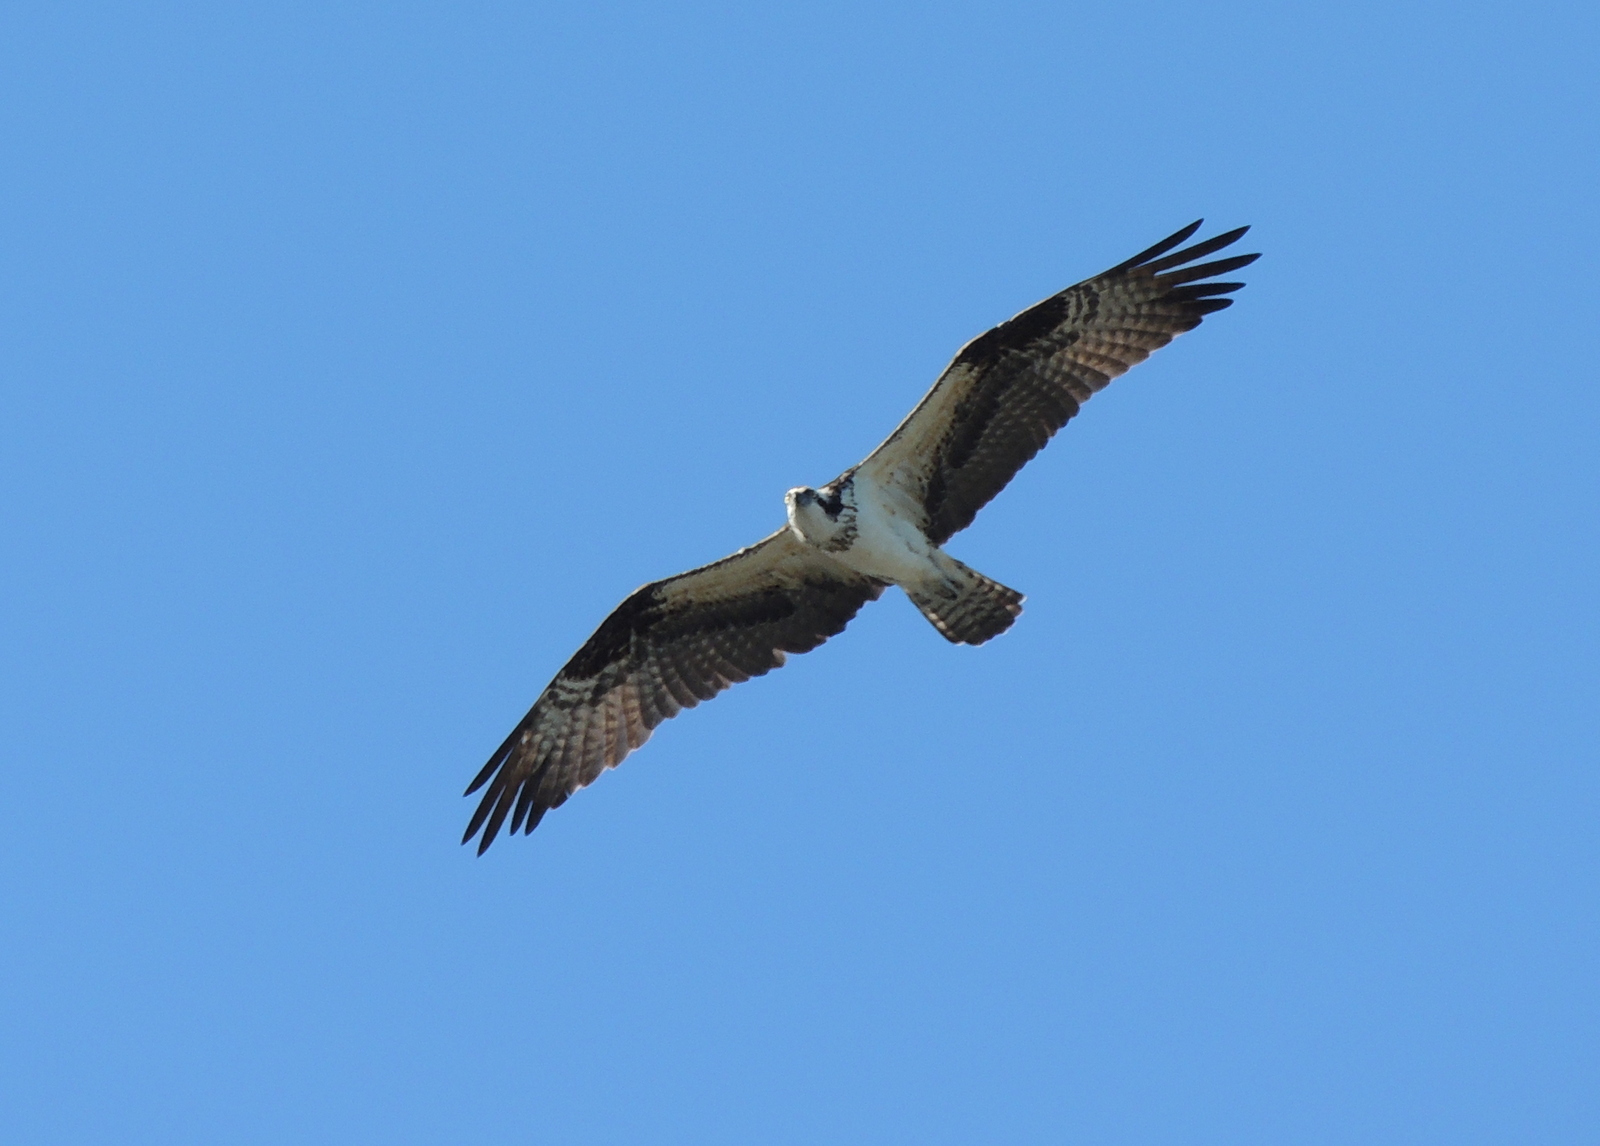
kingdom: Animalia
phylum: Chordata
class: Aves
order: Accipitriformes
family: Pandionidae
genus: Pandion
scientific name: Pandion haliaetus
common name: Osprey
